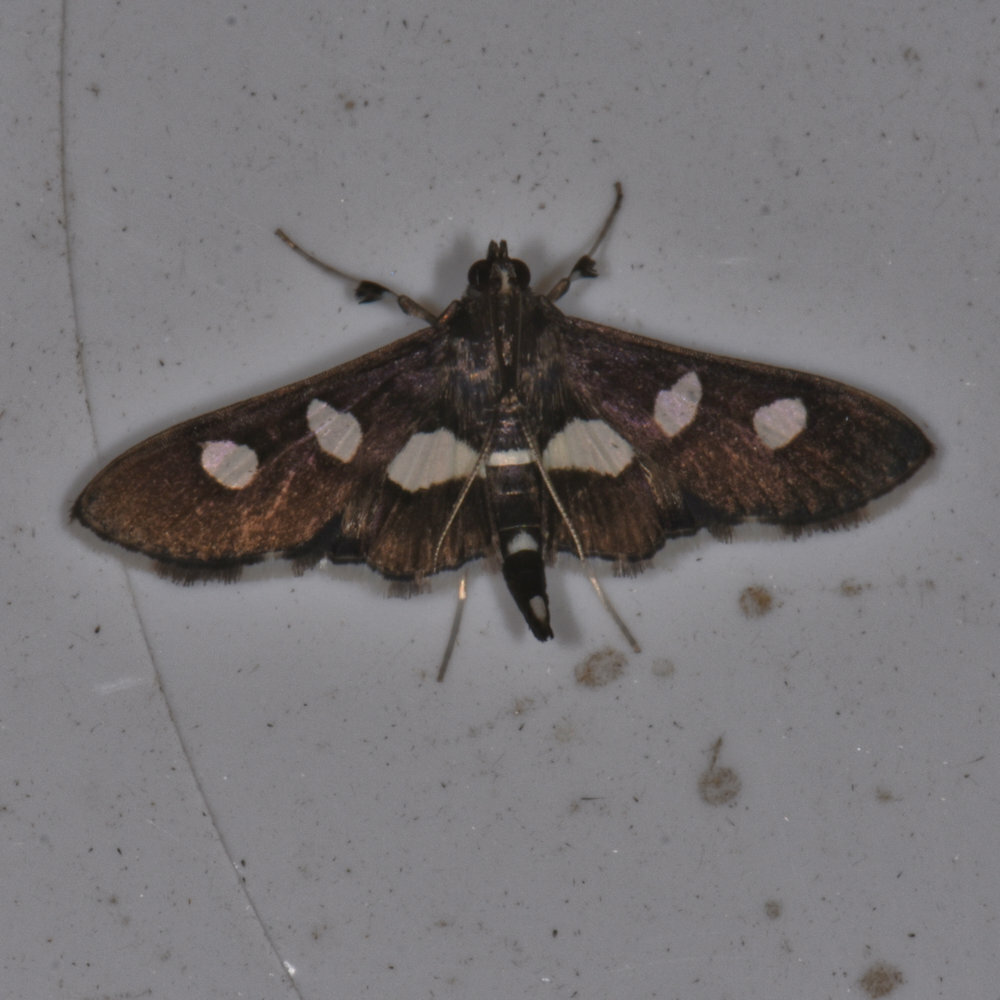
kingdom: Animalia
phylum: Arthropoda
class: Insecta
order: Lepidoptera
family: Crambidae
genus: Desmia
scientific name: Desmia
